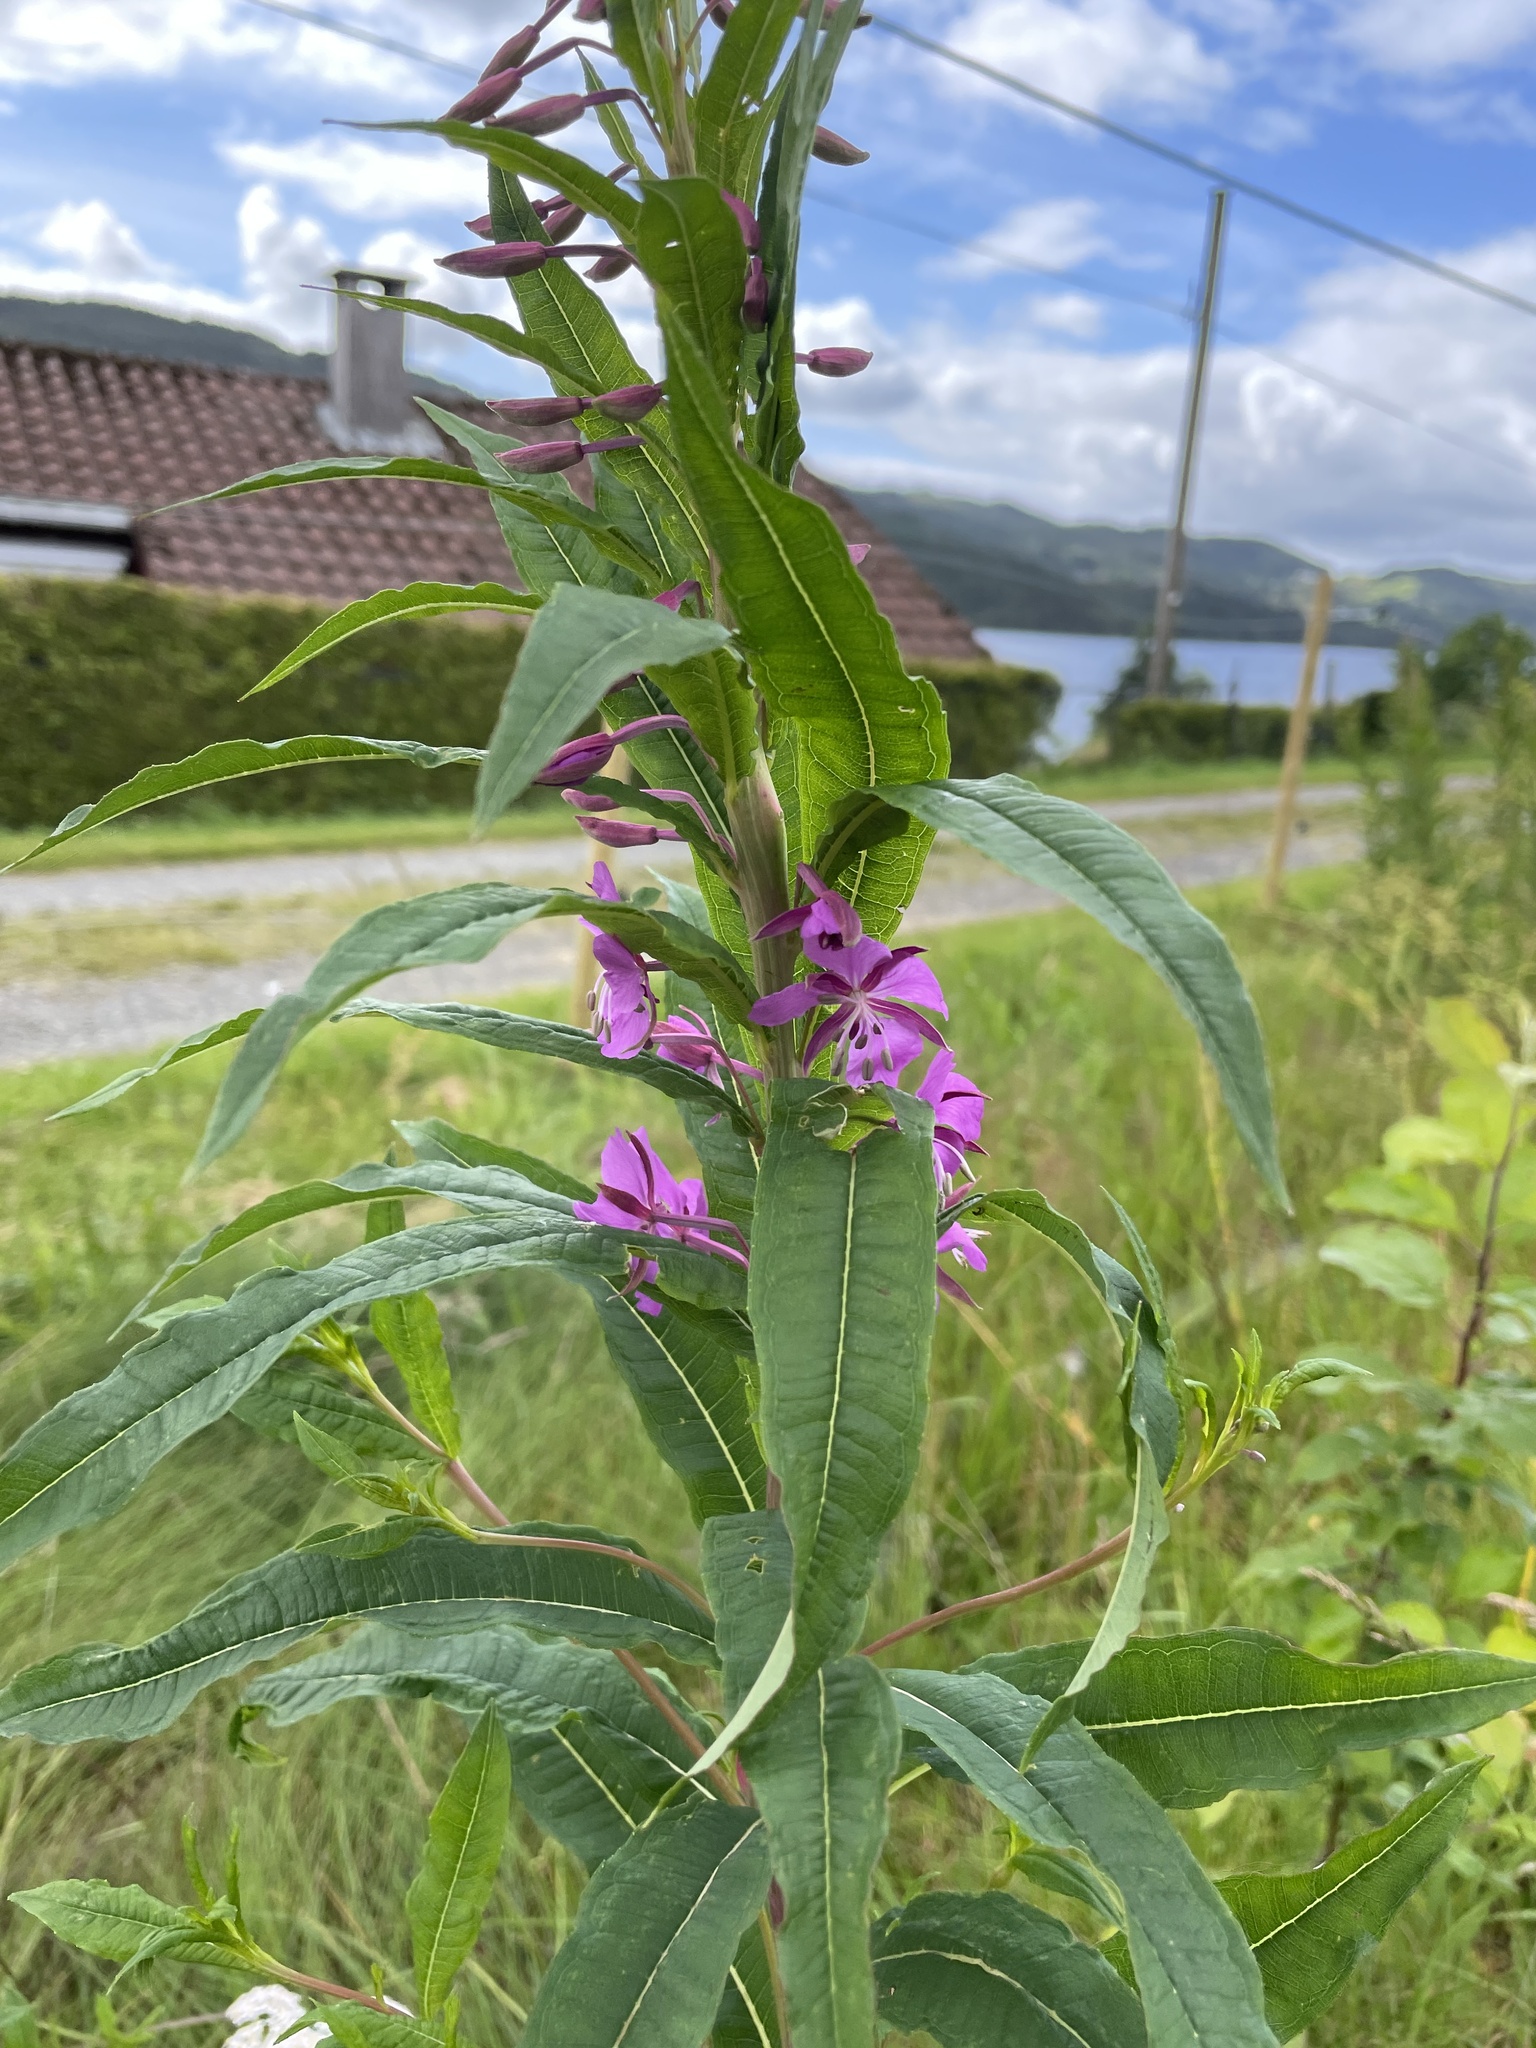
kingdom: Plantae
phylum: Tracheophyta
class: Magnoliopsida
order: Myrtales
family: Onagraceae
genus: Chamaenerion
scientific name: Chamaenerion angustifolium
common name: Fireweed
